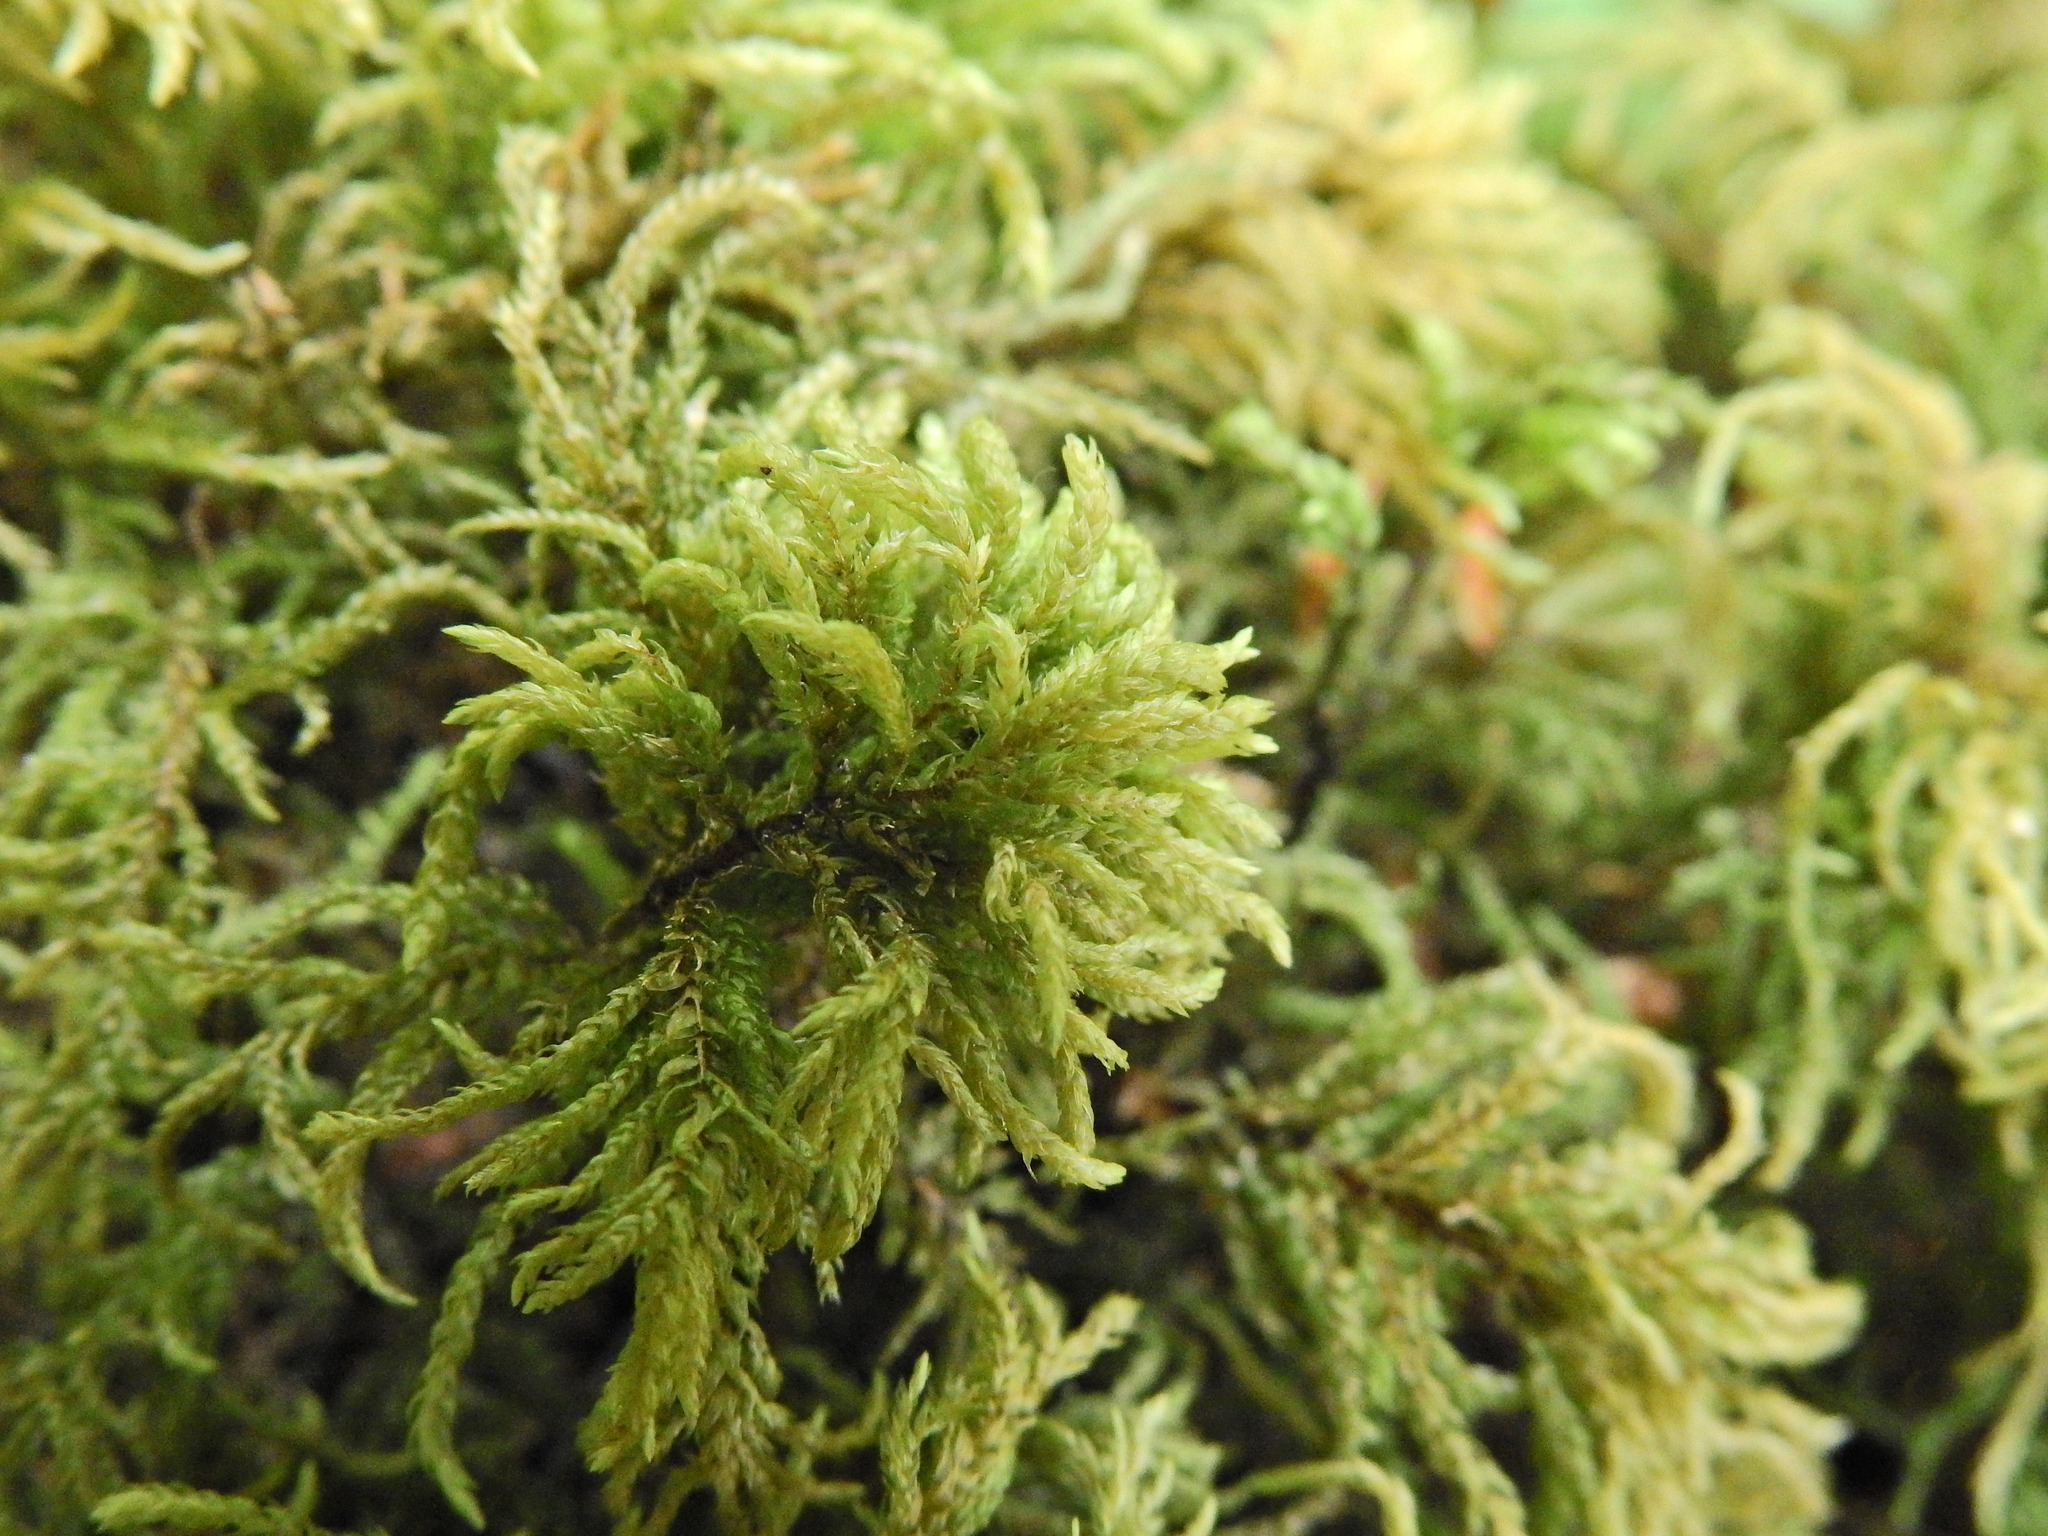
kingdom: Plantae
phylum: Bryophyta
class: Bryopsida
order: Hypnales
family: Neckeraceae
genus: Thamnobryum
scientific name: Thamnobryum alopecurum
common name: Fox-tail feather-moss
